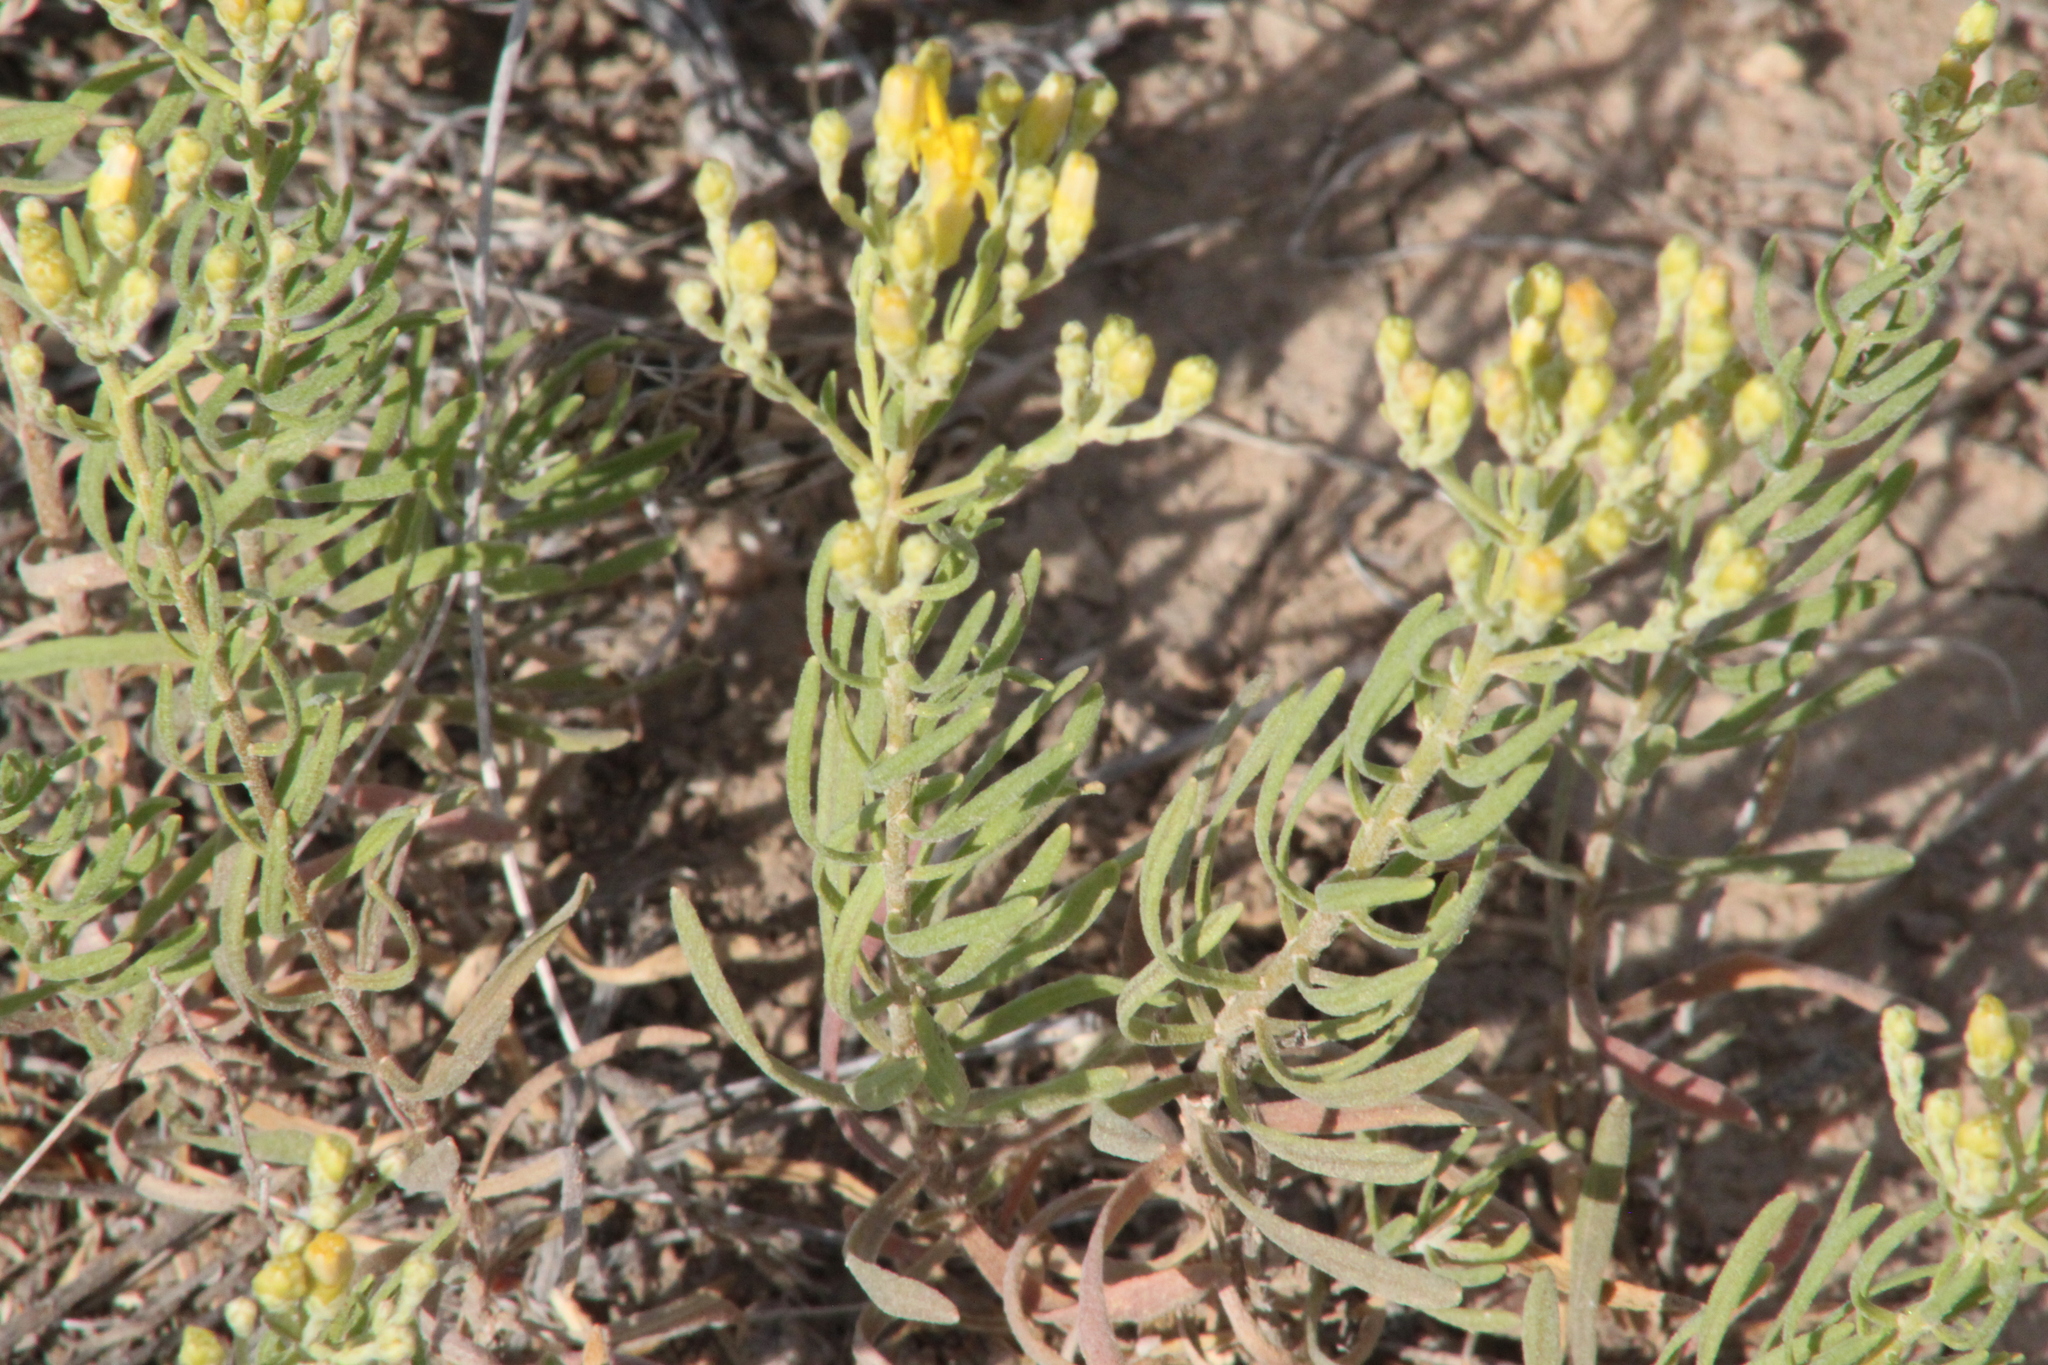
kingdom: Plantae
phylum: Tracheophyta
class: Magnoliopsida
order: Asterales
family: Asteraceae
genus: Galatella
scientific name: Galatella biflora
